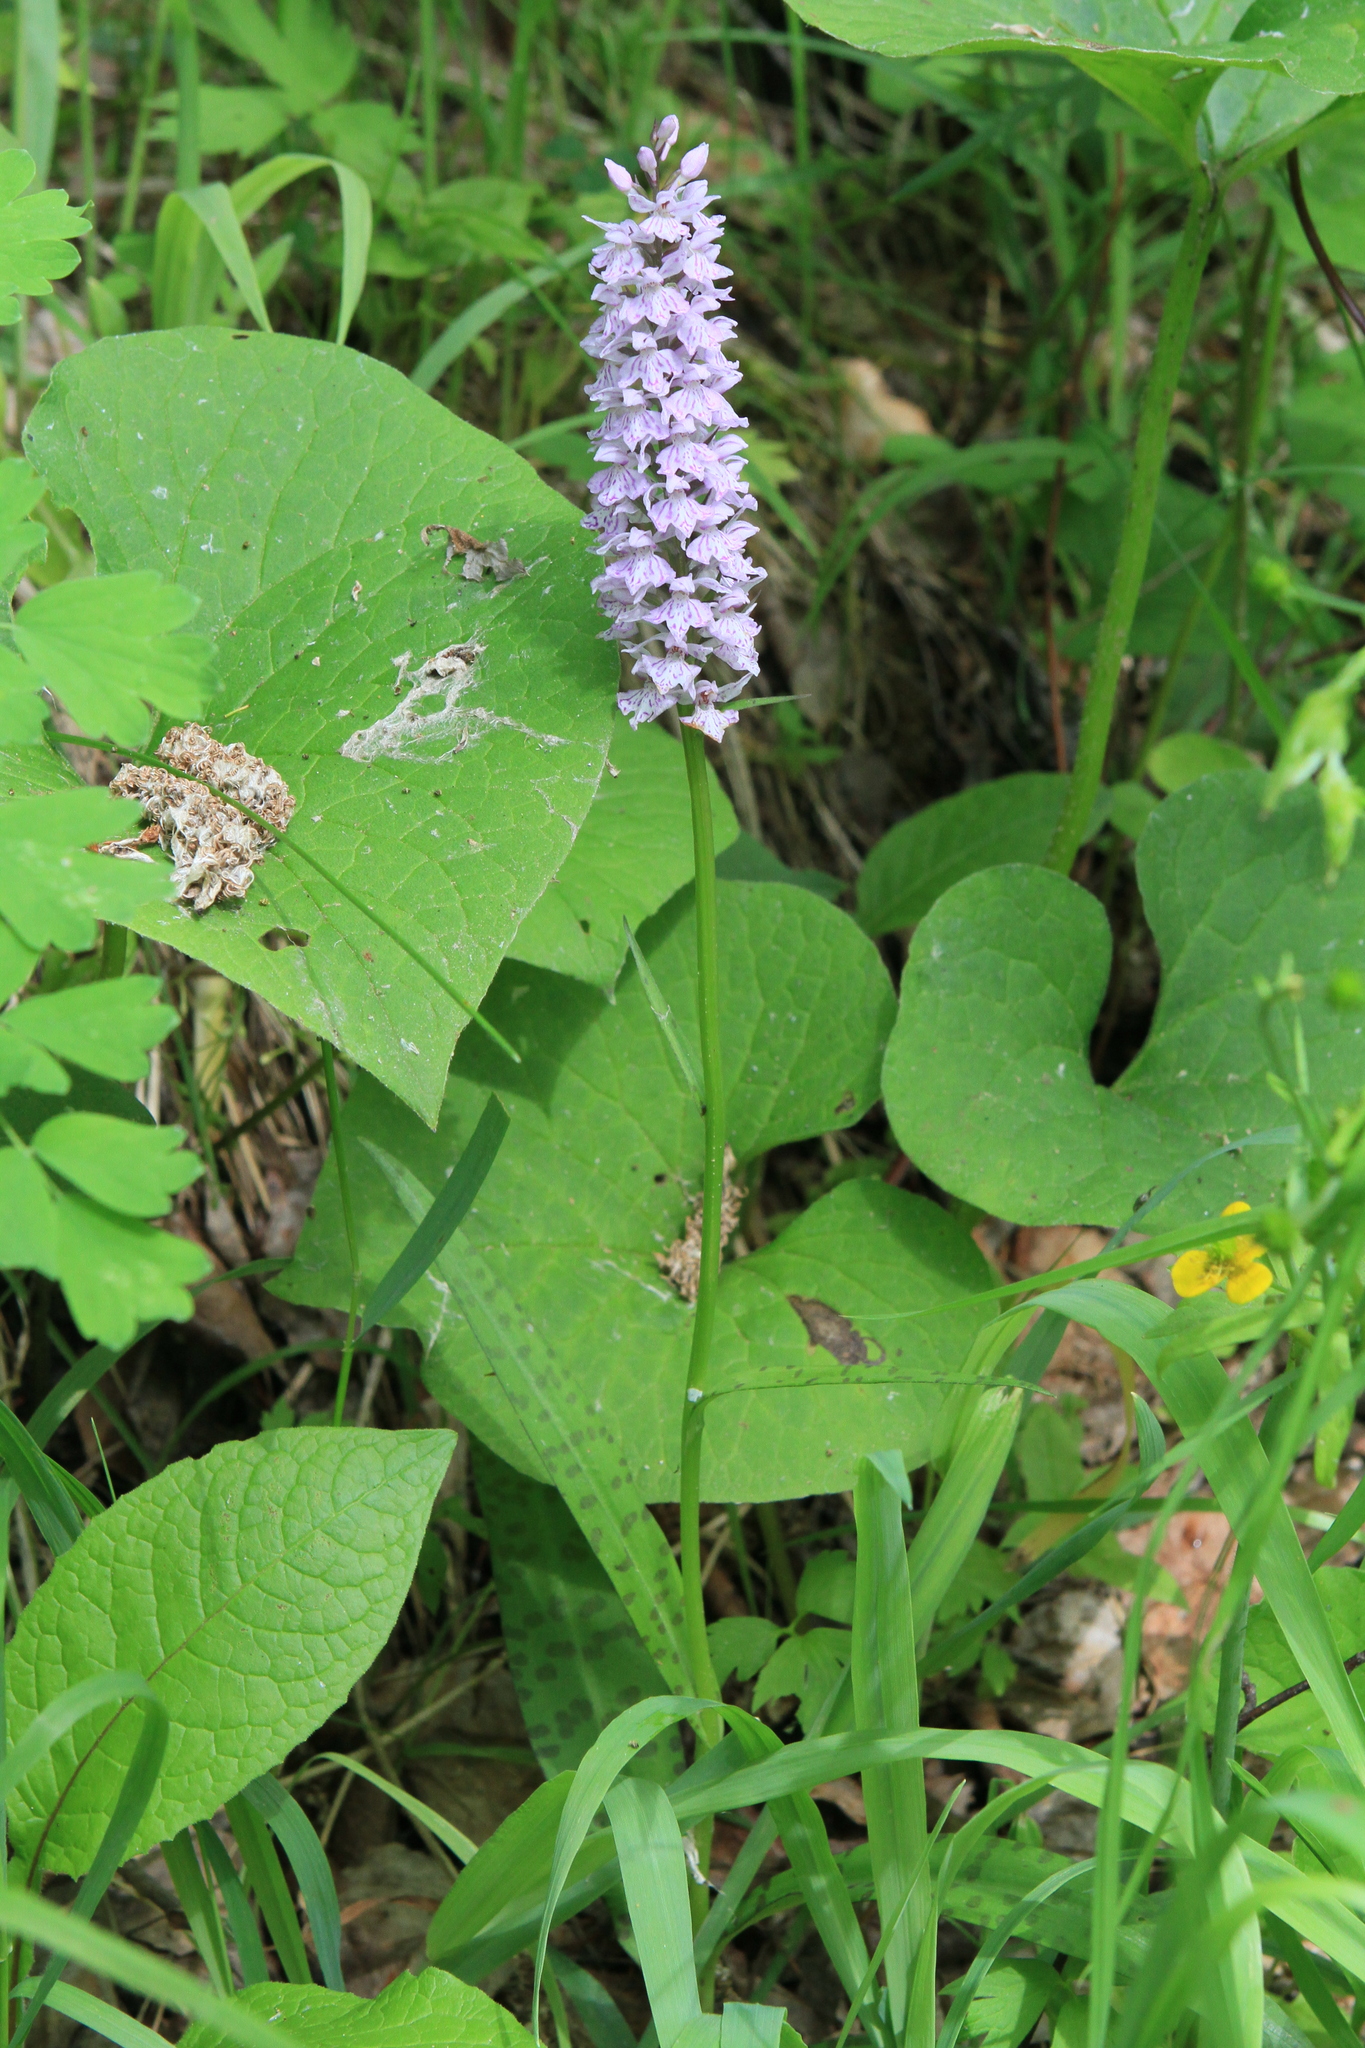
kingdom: Plantae
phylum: Tracheophyta
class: Liliopsida
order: Asparagales
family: Orchidaceae
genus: Dactylorhiza
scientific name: Dactylorhiza maculata
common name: Heath spotted-orchid
